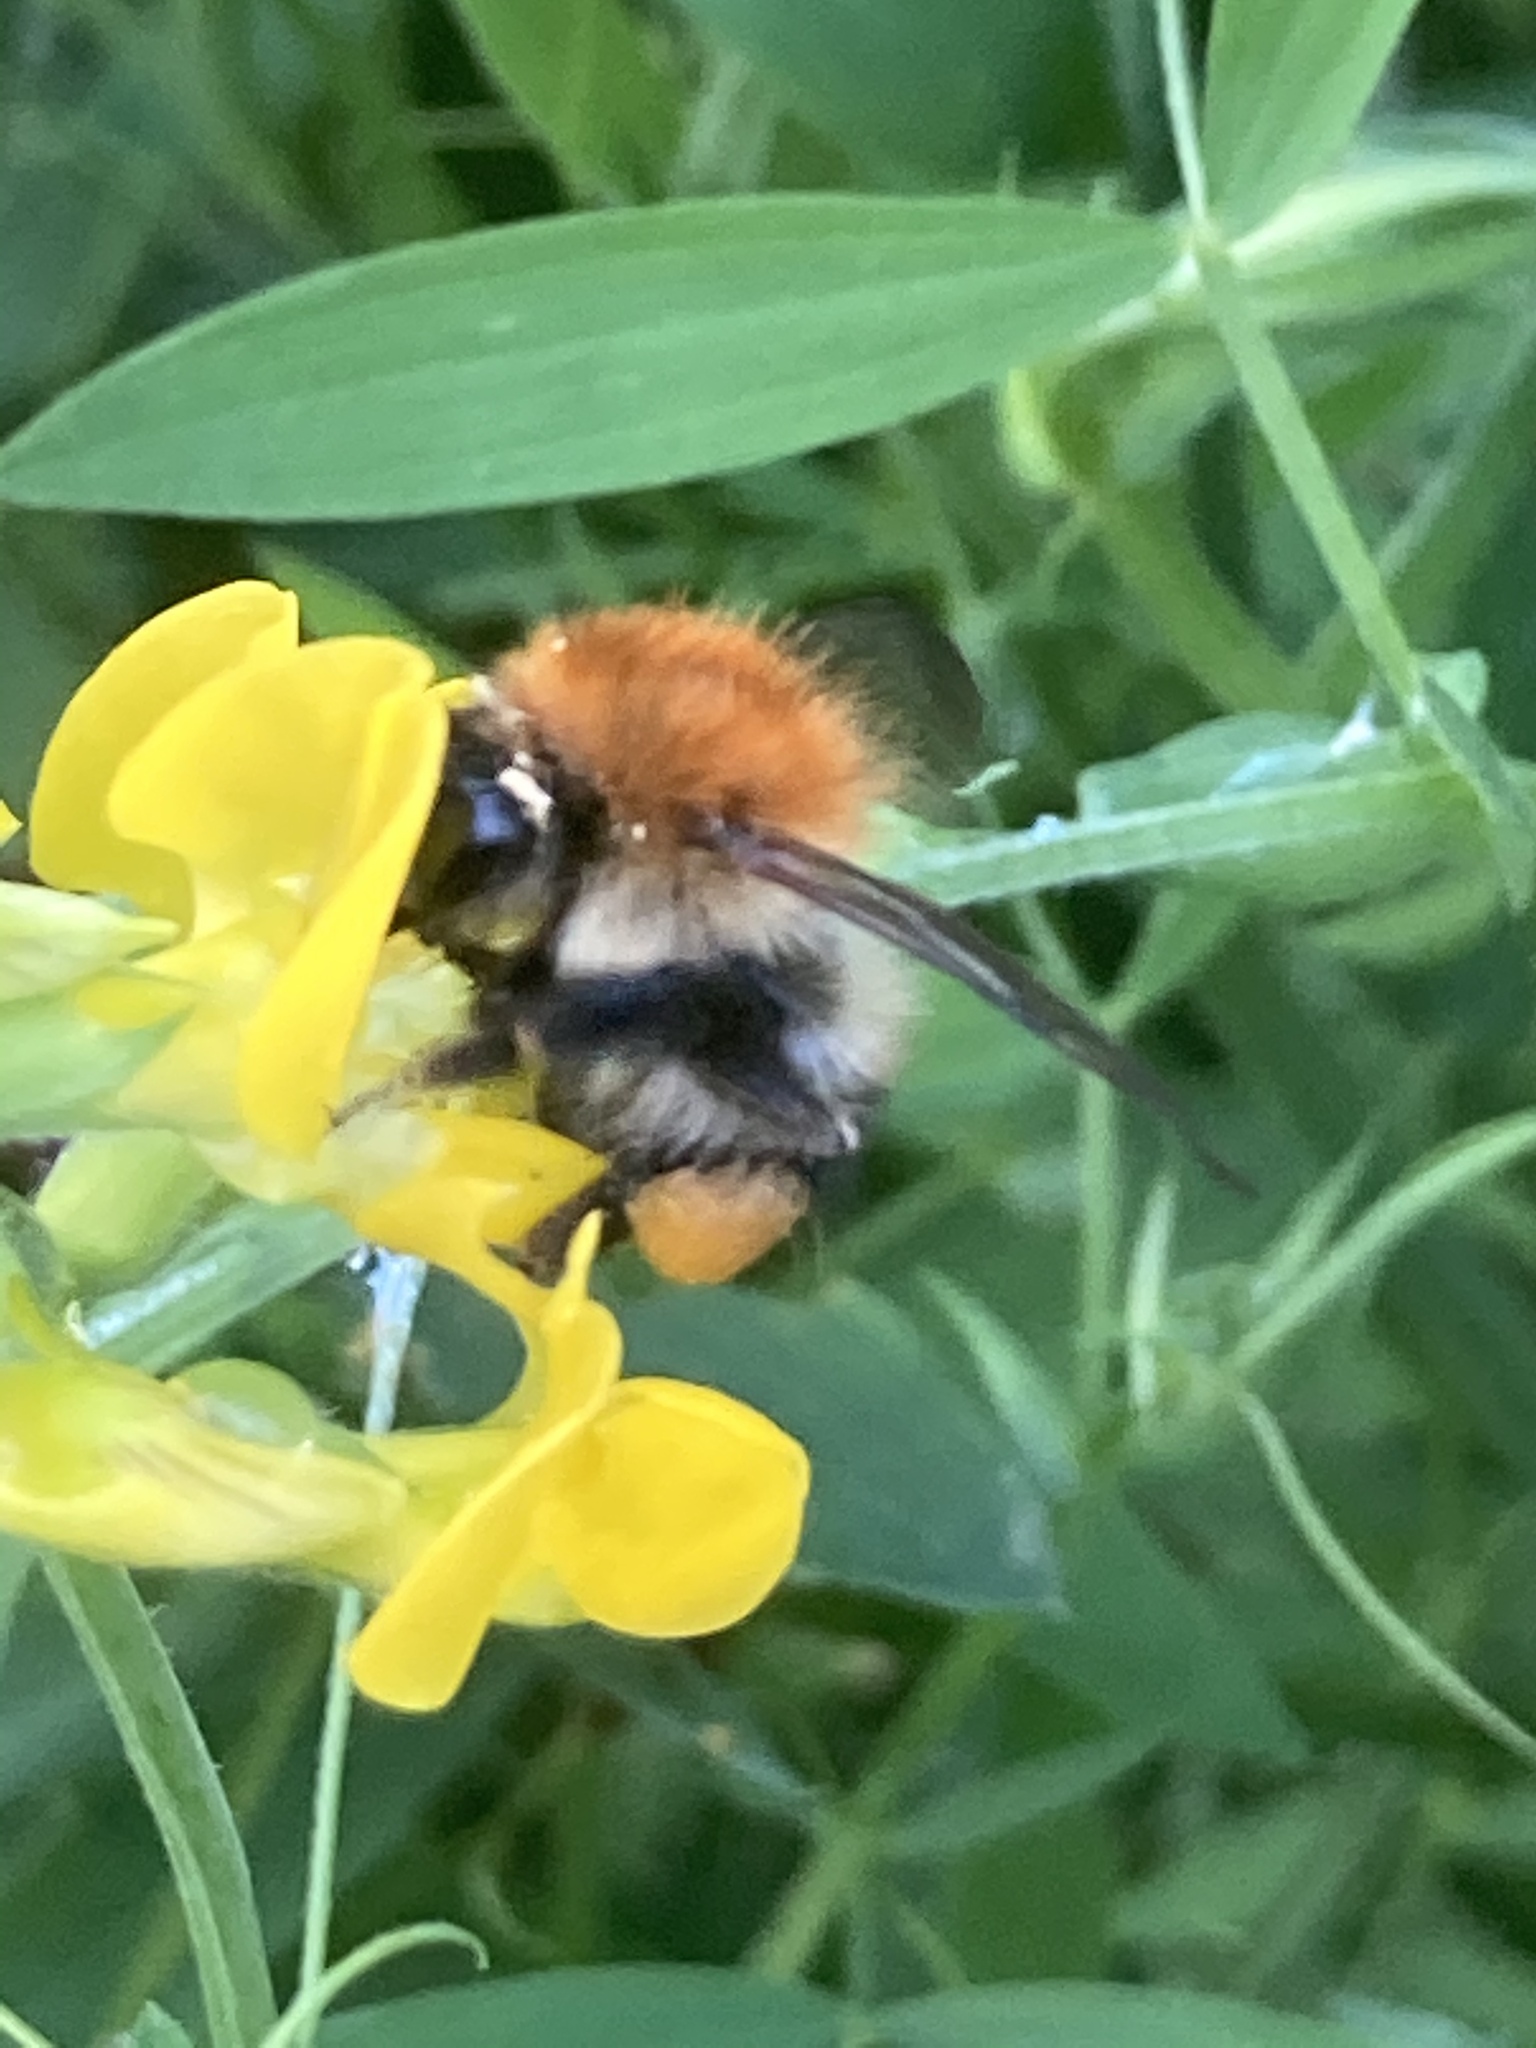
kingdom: Animalia
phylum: Arthropoda
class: Insecta
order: Hymenoptera
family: Apidae
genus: Bombus
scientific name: Bombus pascuorum
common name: Common carder bee
